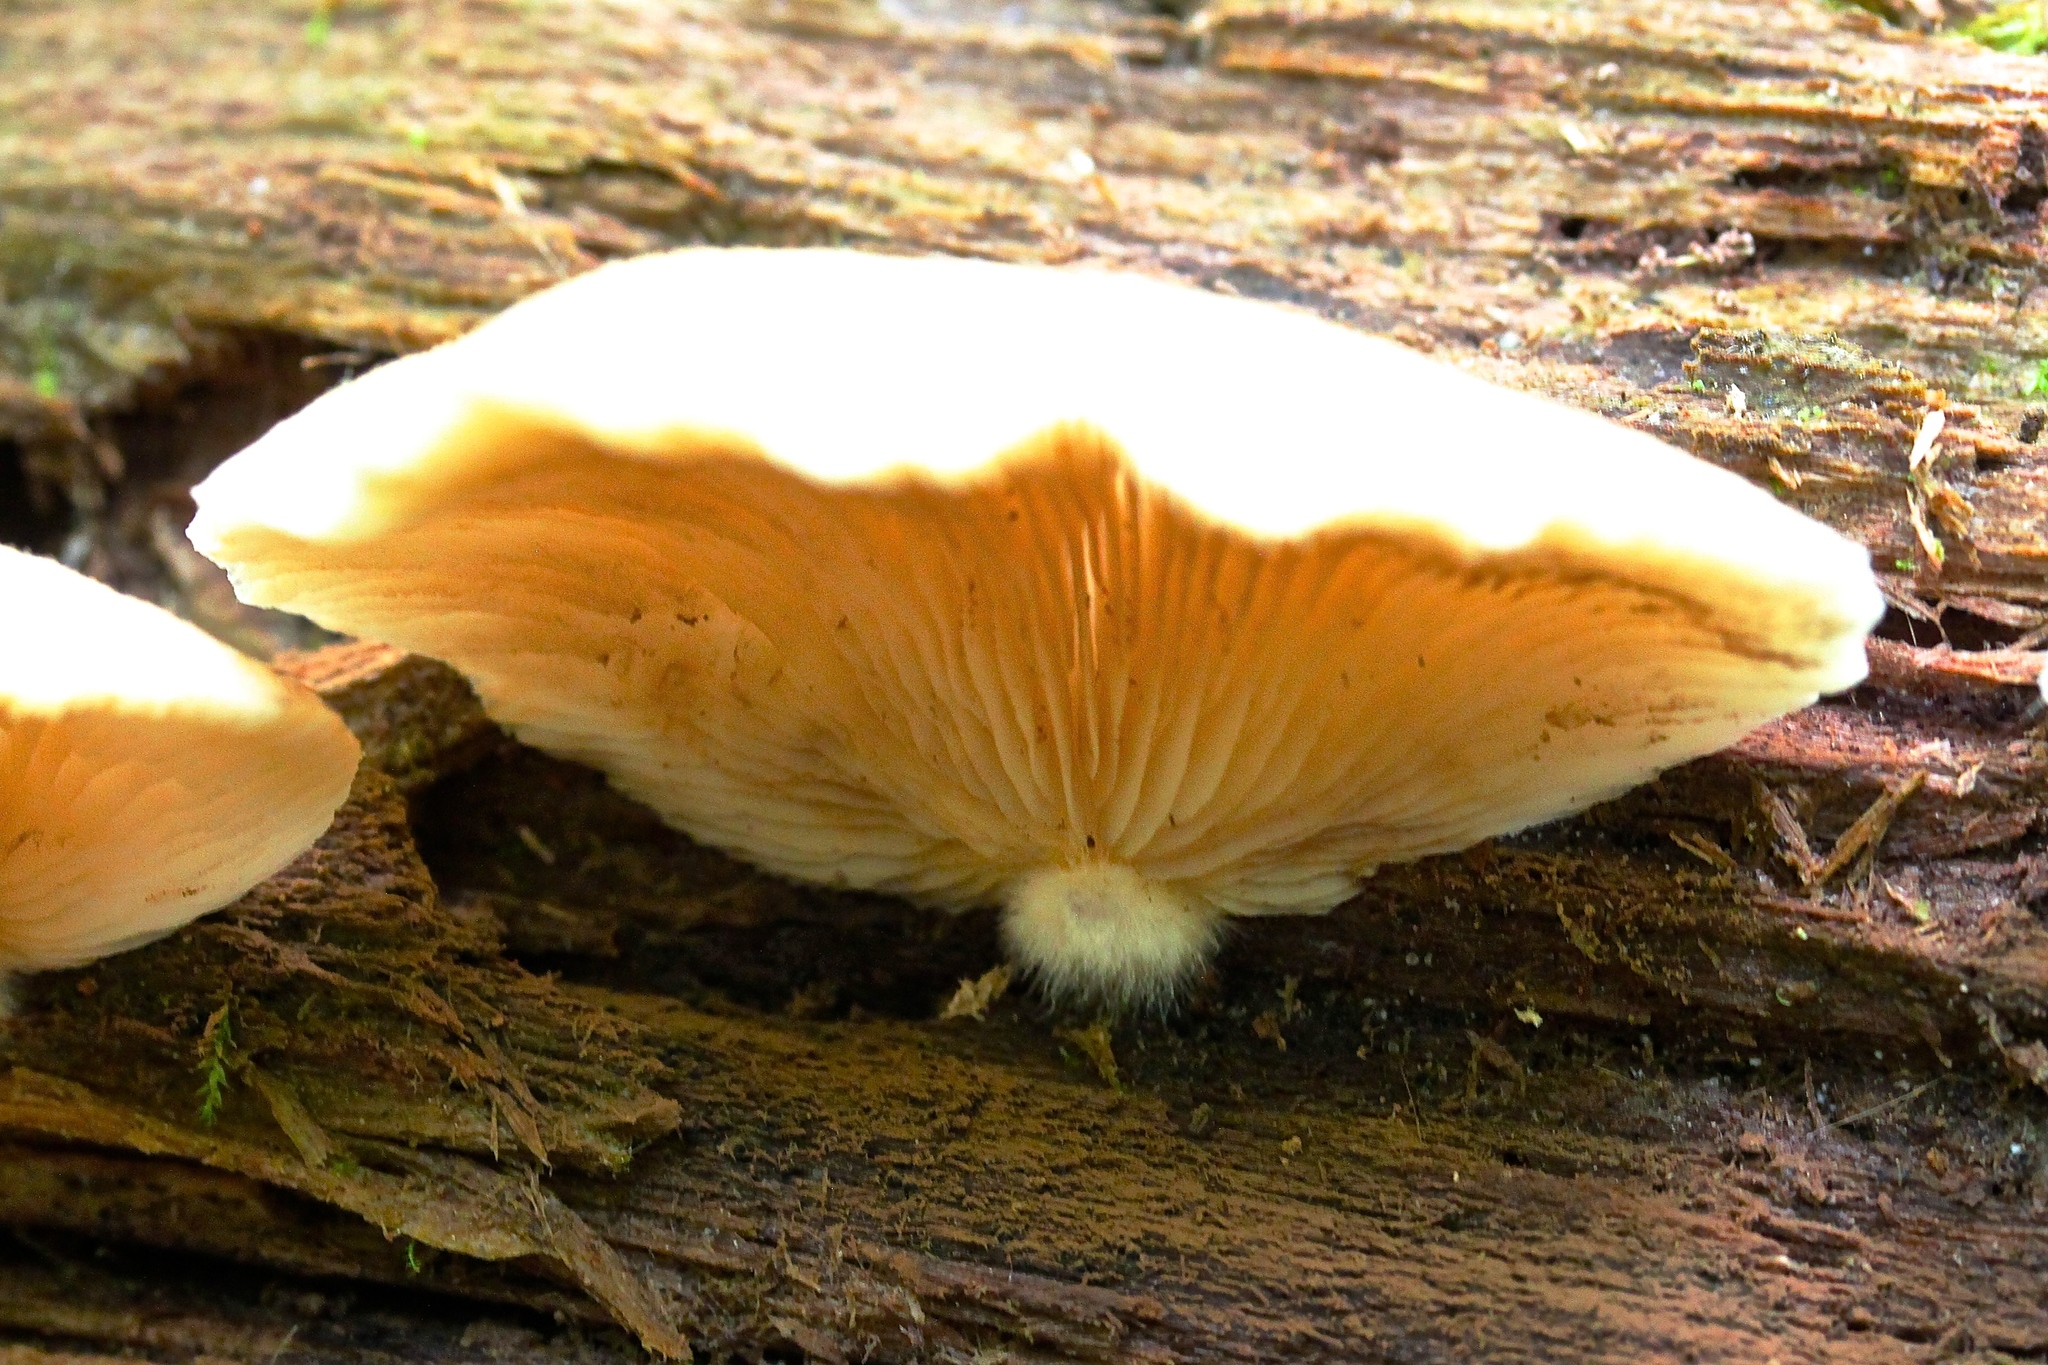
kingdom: Fungi
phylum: Basidiomycota
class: Agaricomycetes
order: Agaricales
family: Crepidotaceae
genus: Crepidotus
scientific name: Crepidotus mollis
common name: Peeling oysterling
